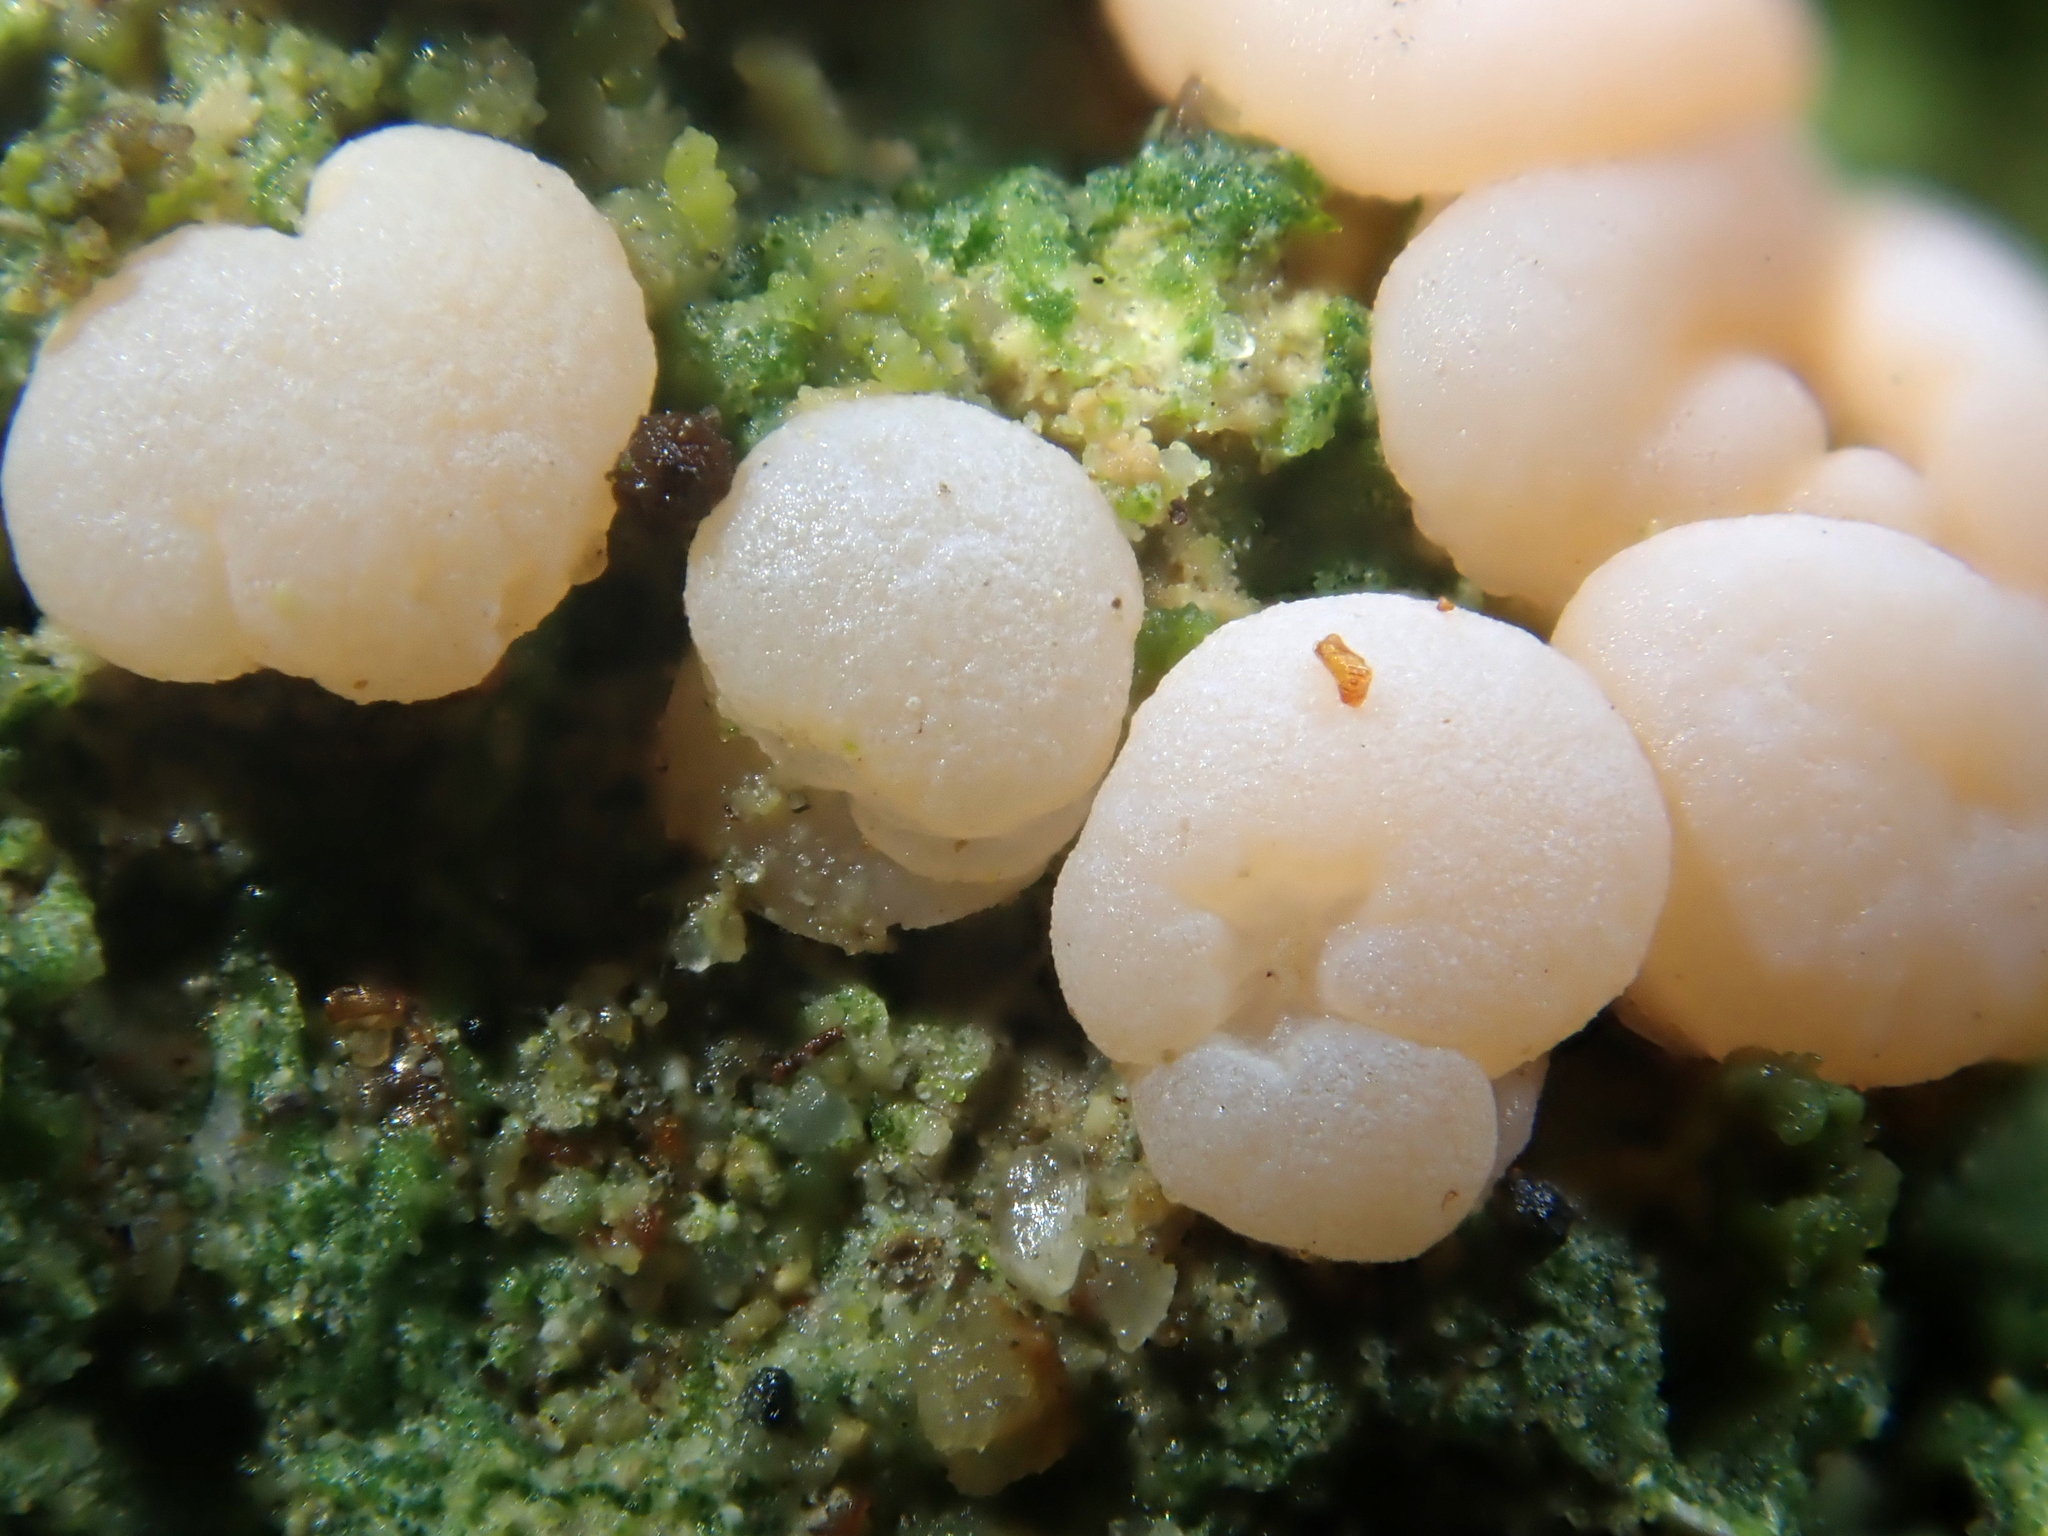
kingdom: Fungi
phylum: Ascomycota
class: Lecanoromycetes
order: Pertusariales
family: Icmadophilaceae
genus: Dibaeis
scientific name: Dibaeis absoluta
